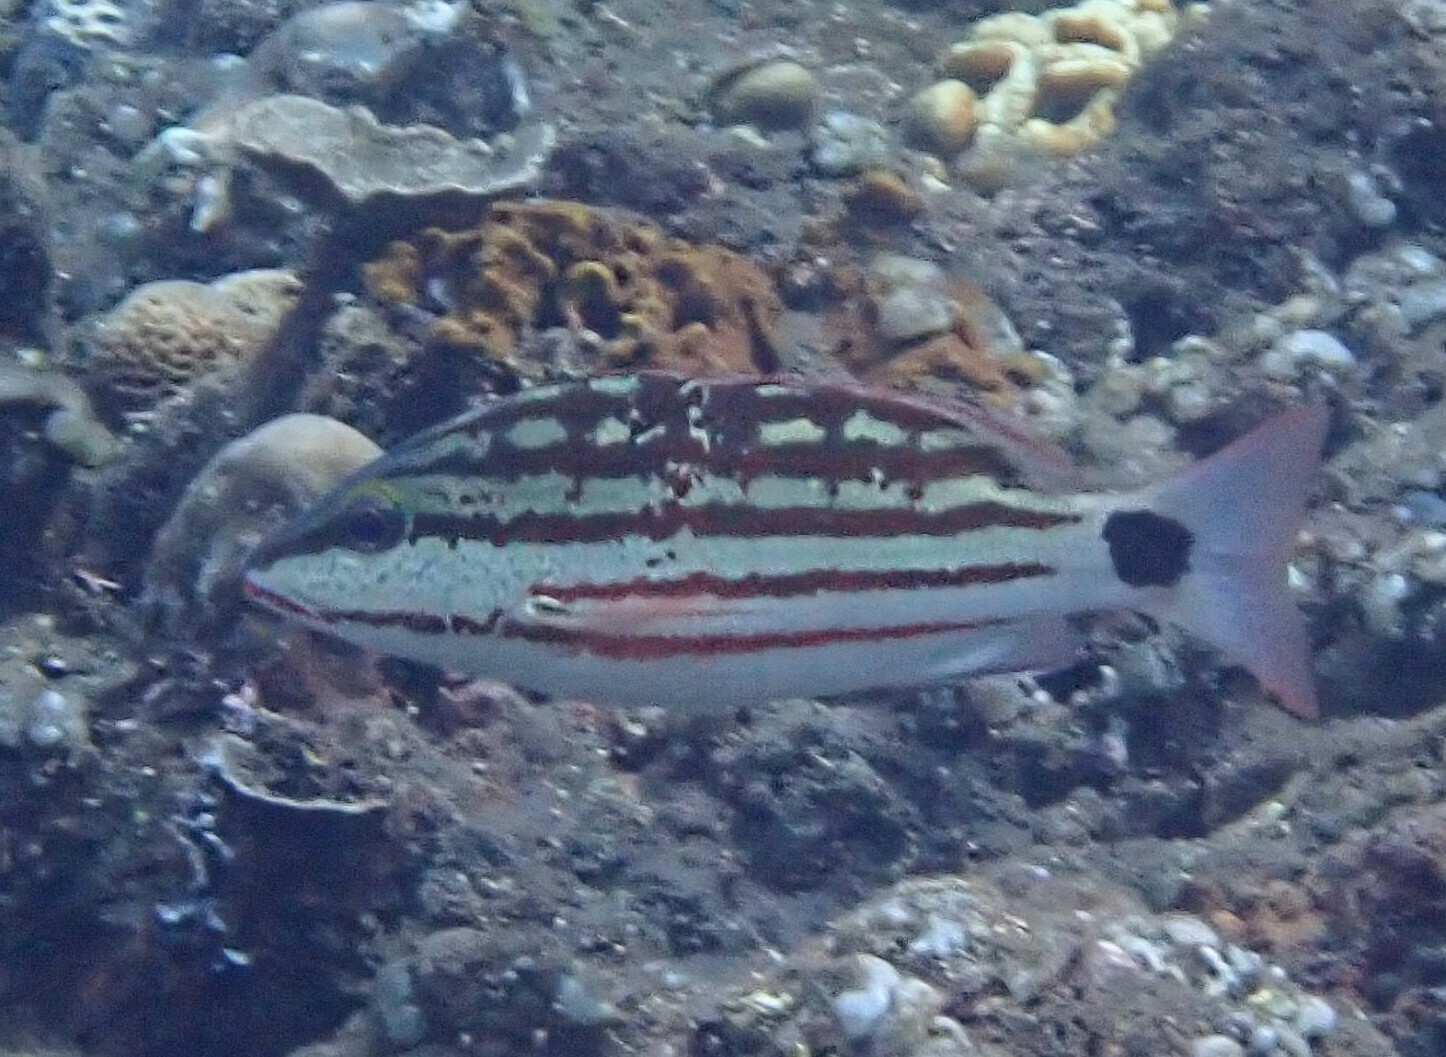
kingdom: Animalia
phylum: Chordata
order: Perciformes
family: Lutjanidae
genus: Lutjanus
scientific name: Lutjanus decussatus
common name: Checkered snapper
